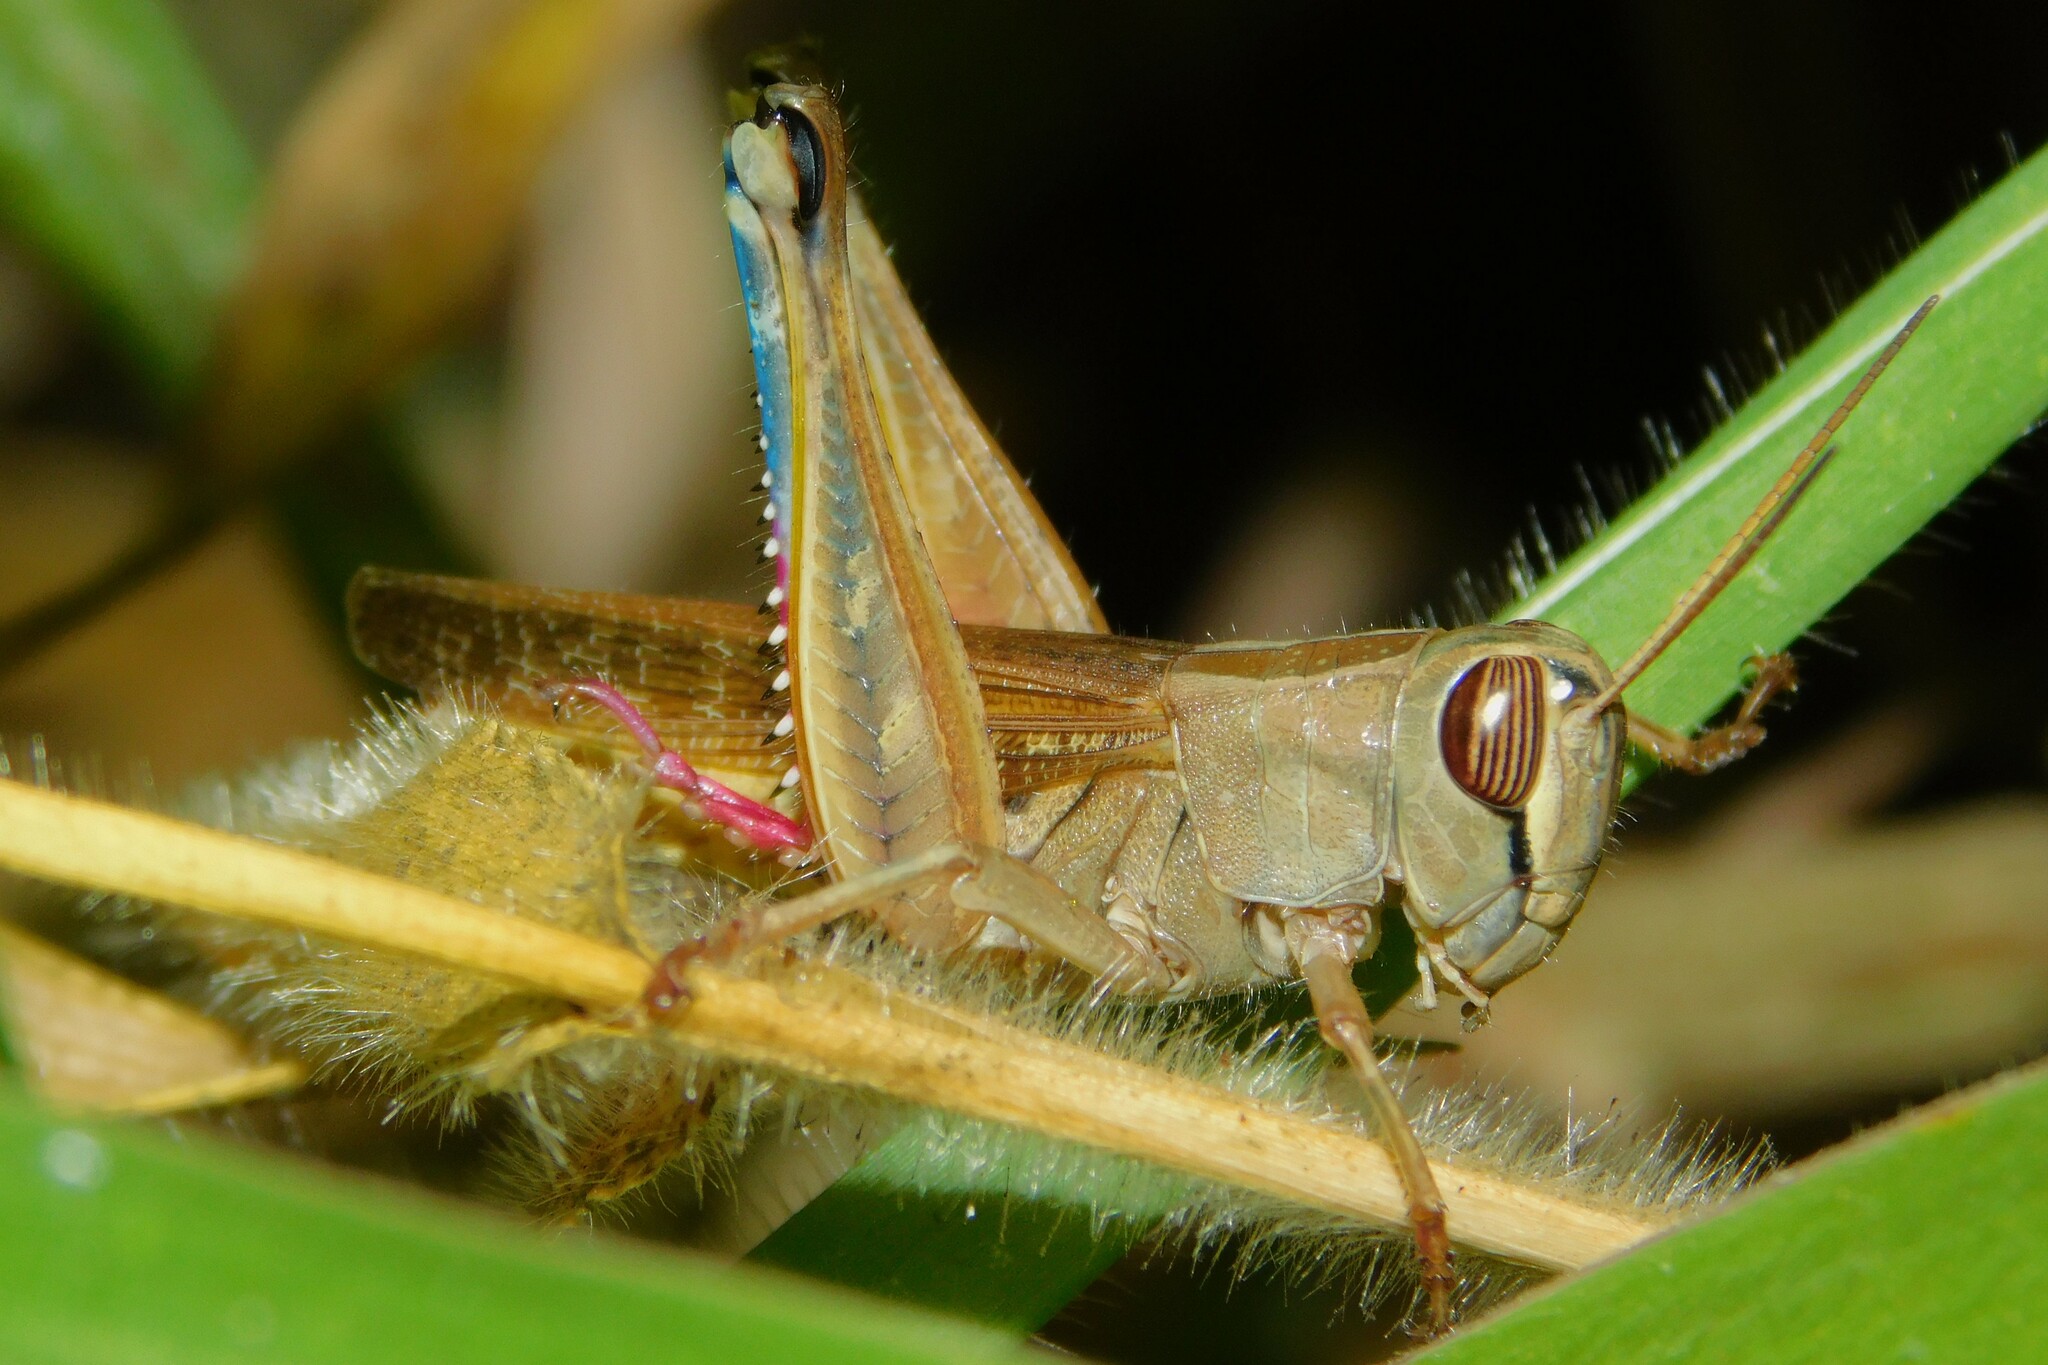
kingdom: Animalia
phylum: Arthropoda
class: Insecta
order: Orthoptera
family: Acrididae
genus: Eyprepocnemis
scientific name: Eyprepocnemis plorans
